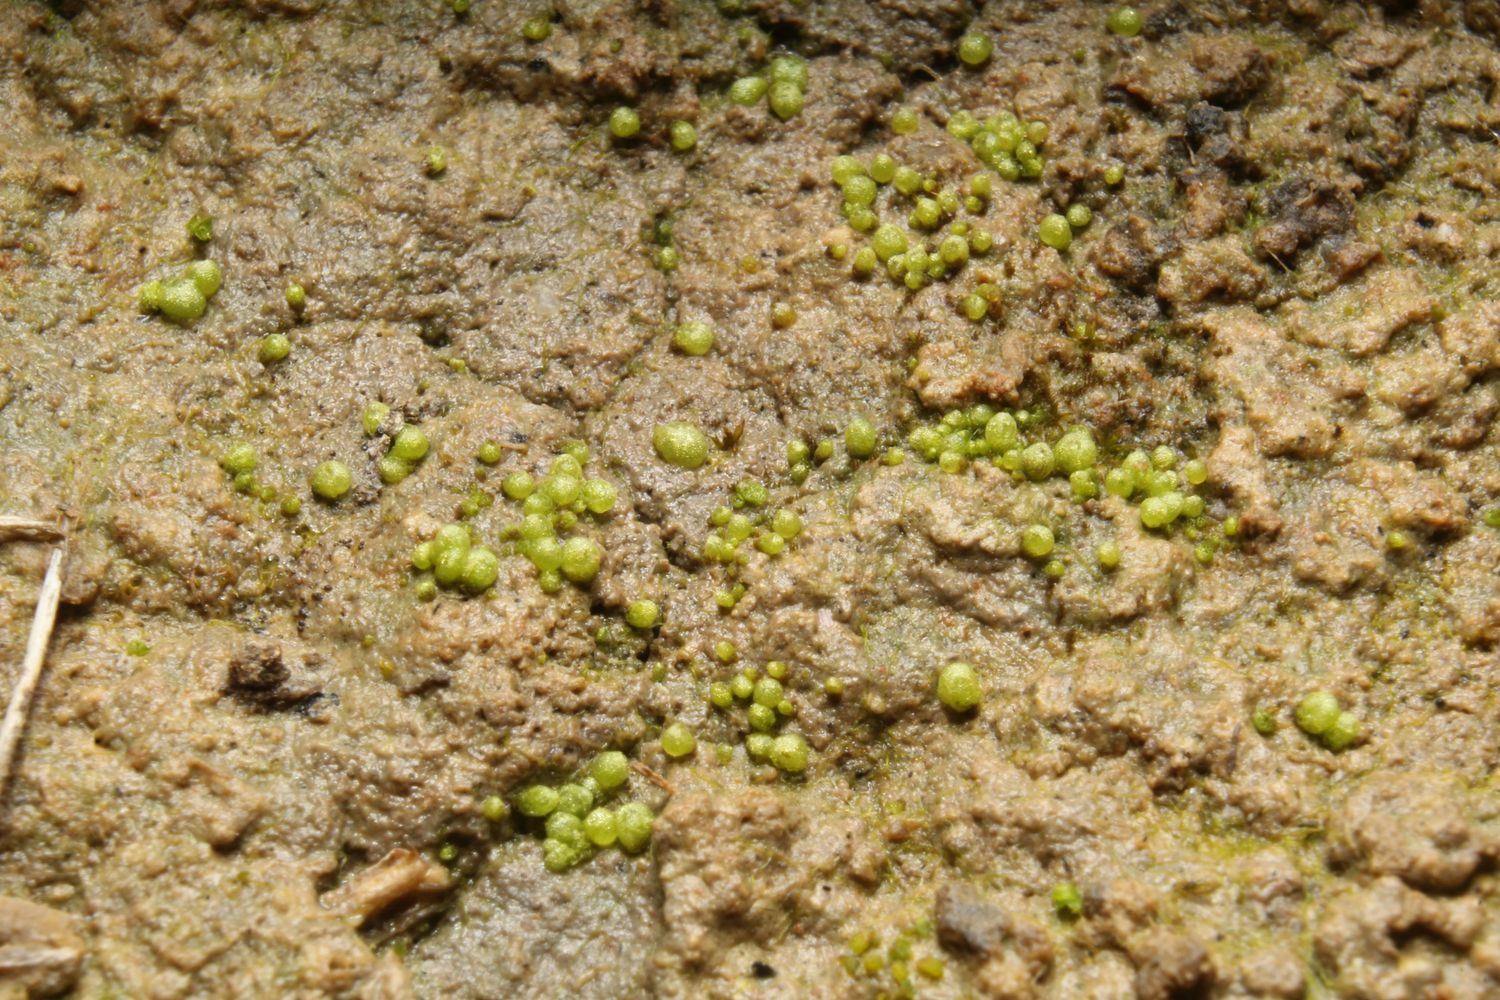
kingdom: Plantae
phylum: Marchantiophyta
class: Marchantiopsida
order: Sphaerocarpales
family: Monocarpaceae
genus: Monocarpus
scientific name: Monocarpus sphaerocarpus
